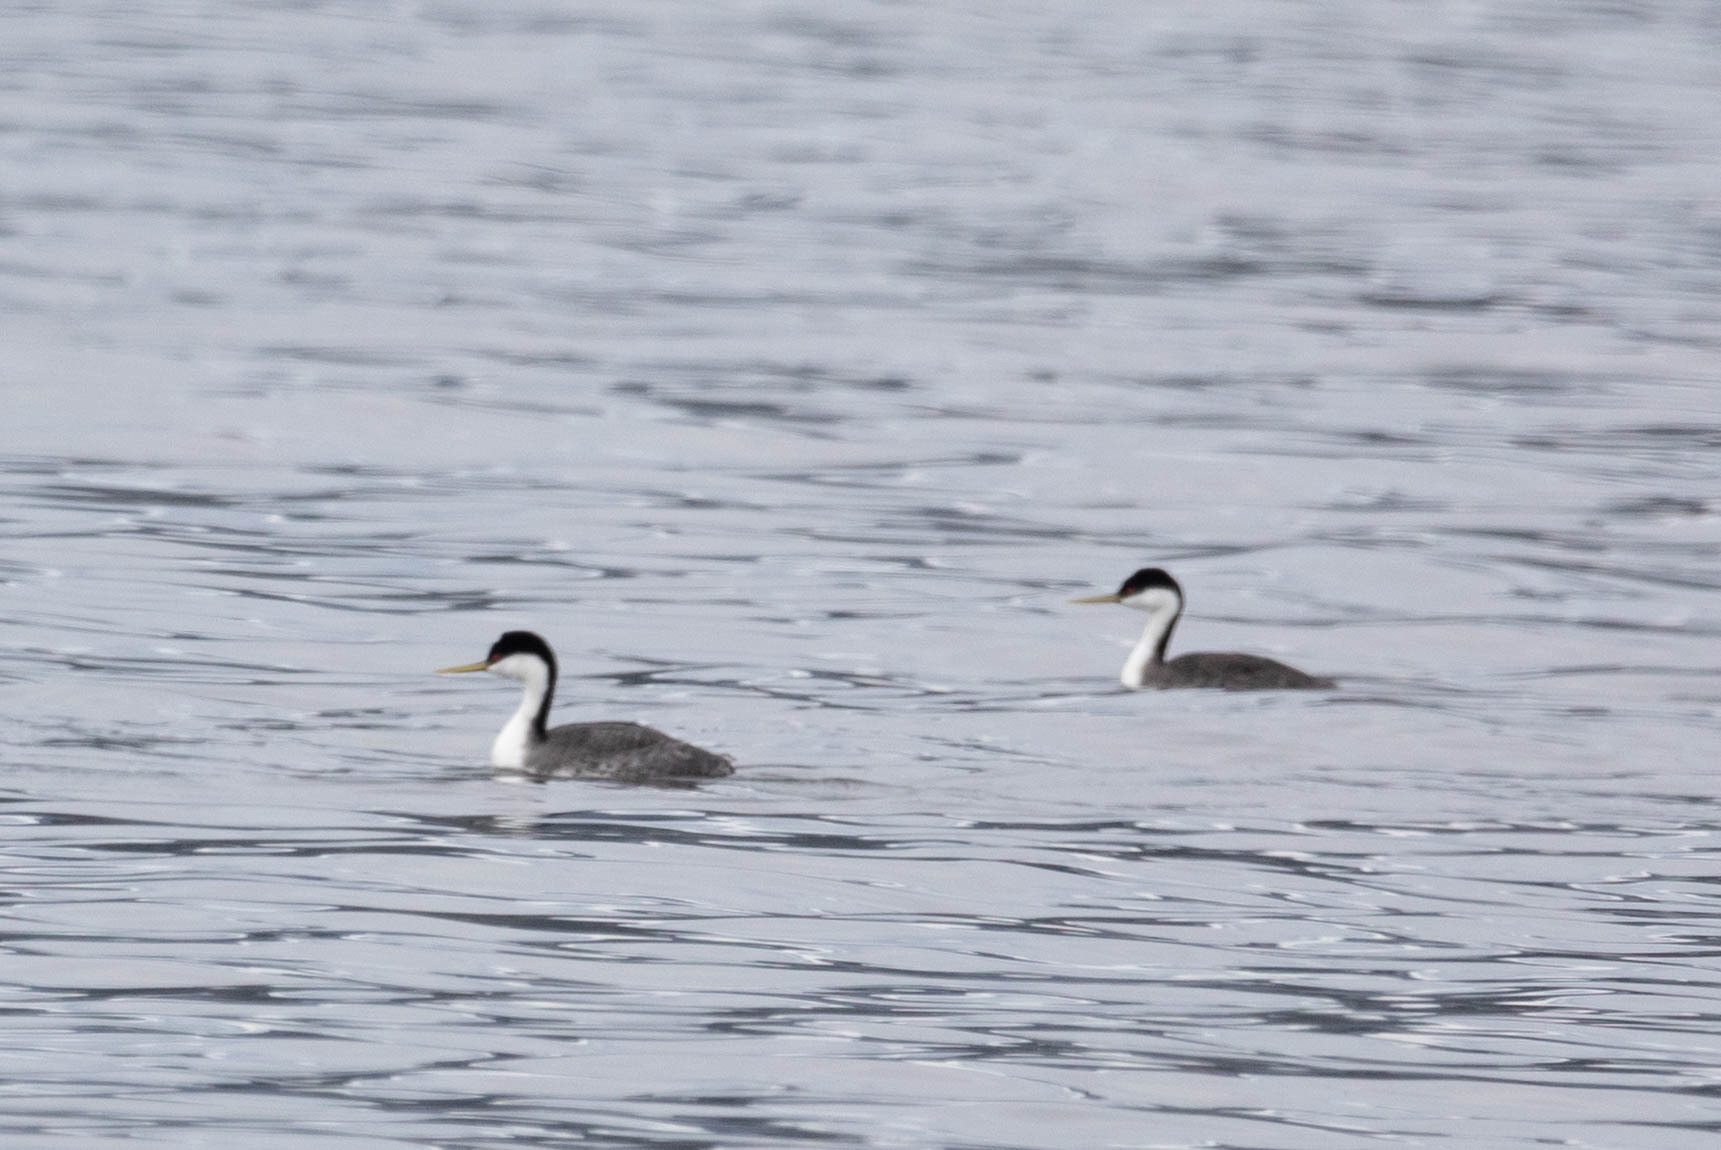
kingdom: Animalia
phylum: Chordata
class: Aves
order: Podicipediformes
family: Podicipedidae
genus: Aechmophorus
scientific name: Aechmophorus occidentalis
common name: Western grebe
